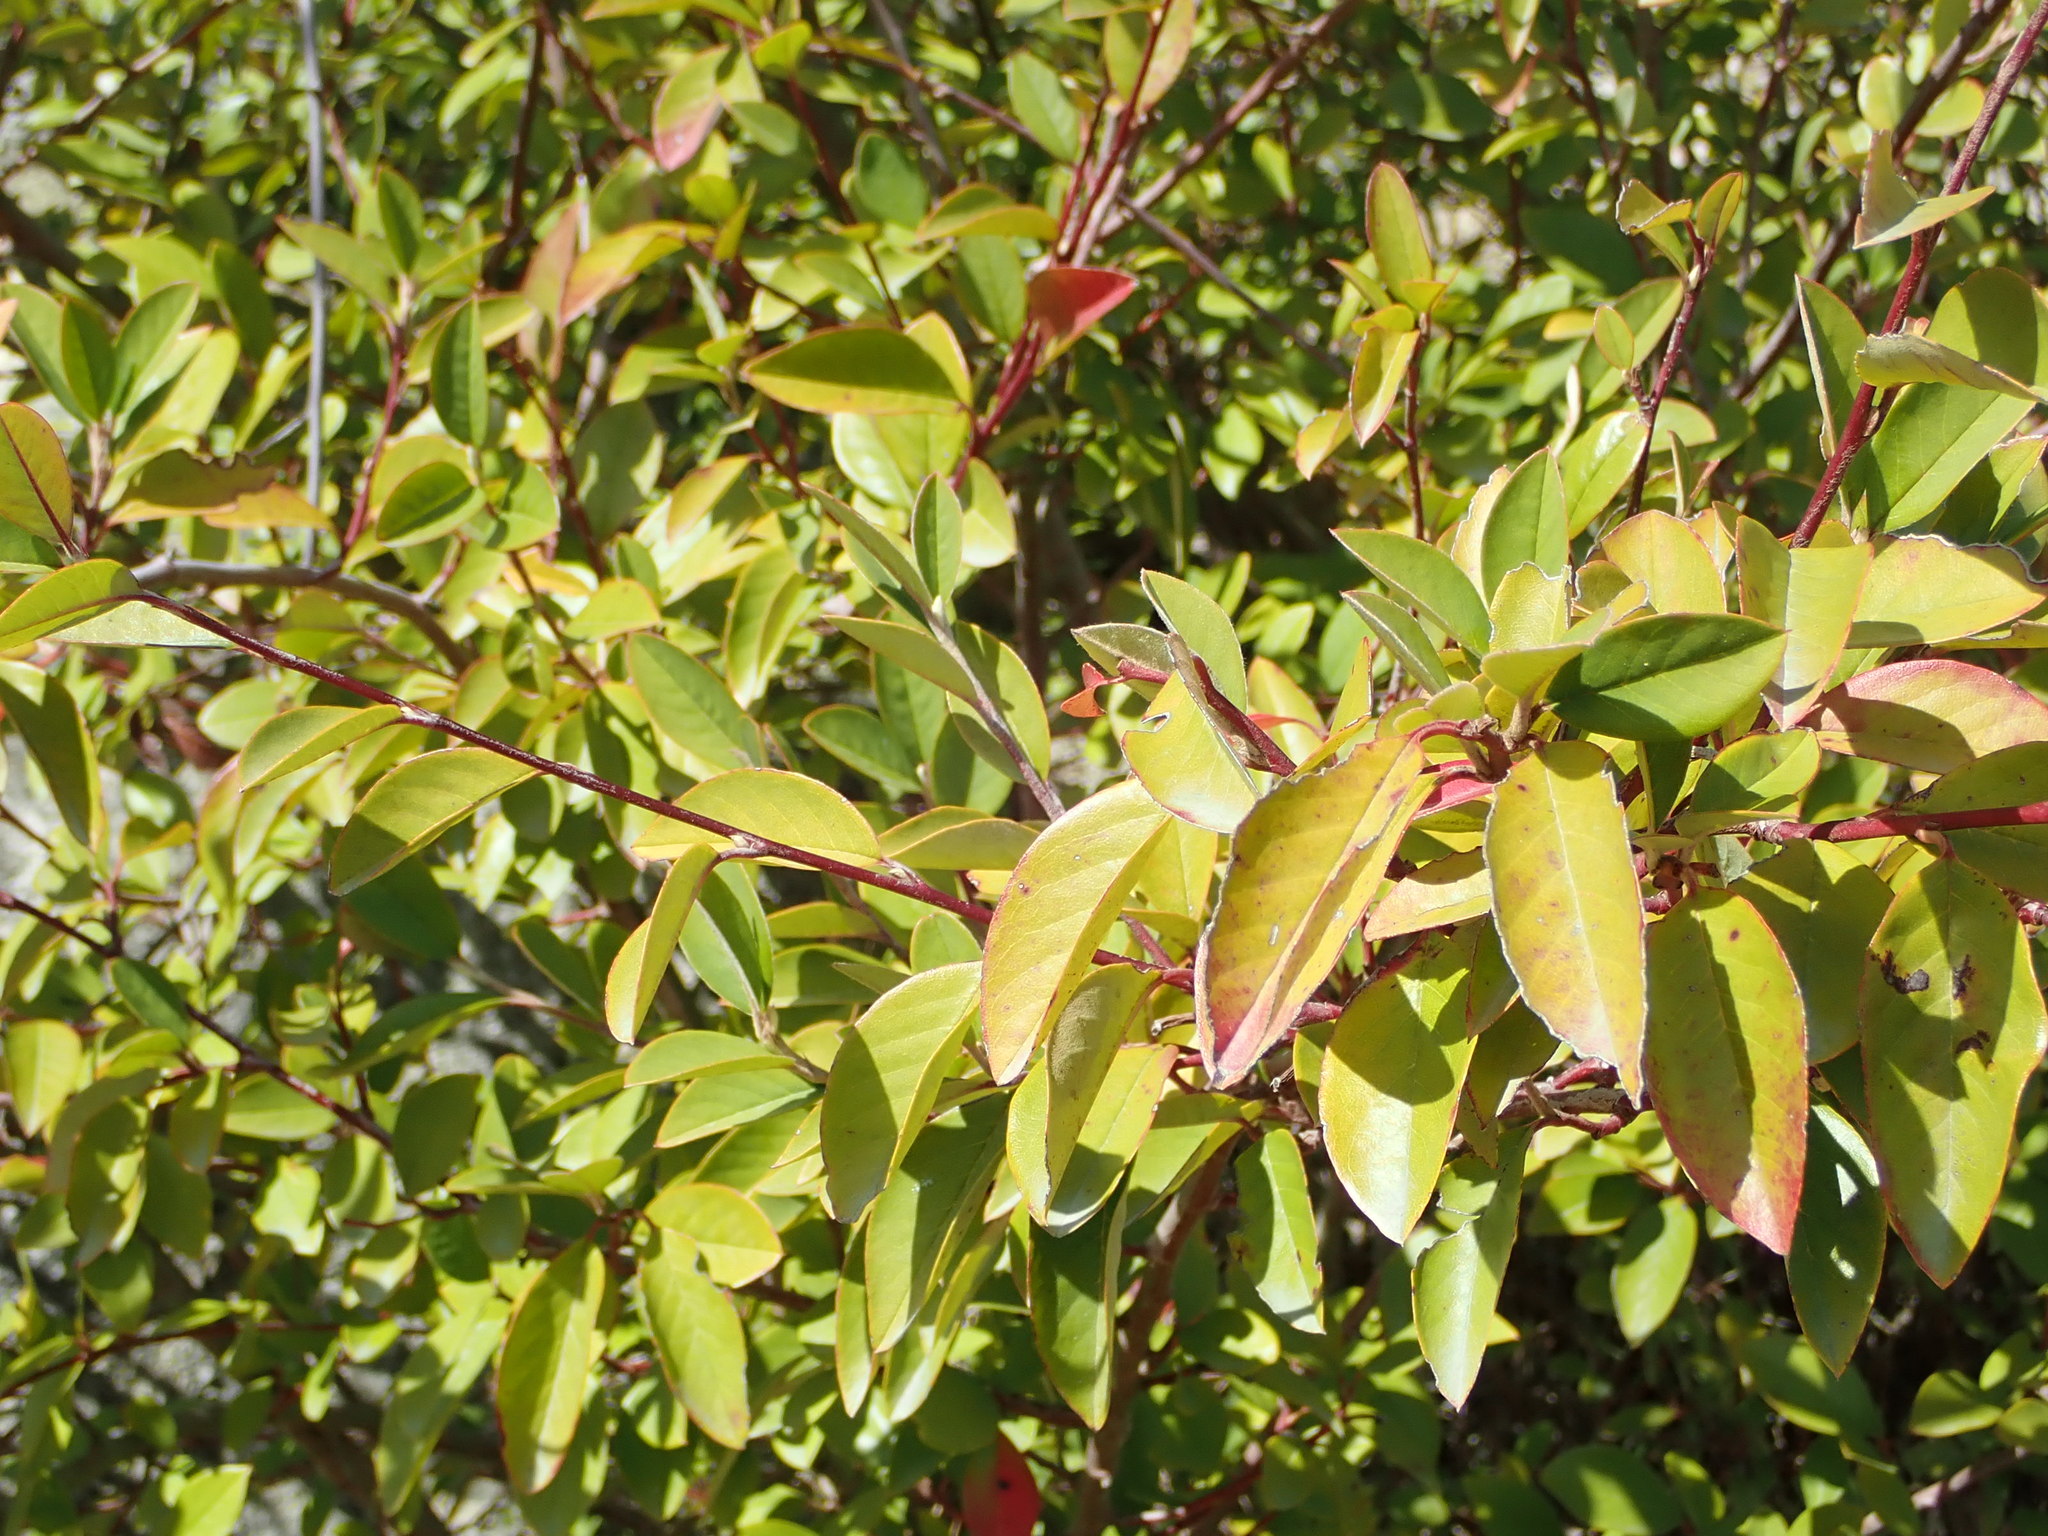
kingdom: Plantae
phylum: Tracheophyta
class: Magnoliopsida
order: Rosales
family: Rosaceae
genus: Cotoneaster
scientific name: Cotoneaster glaucophyllus
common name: Glaucous cotoneaster
